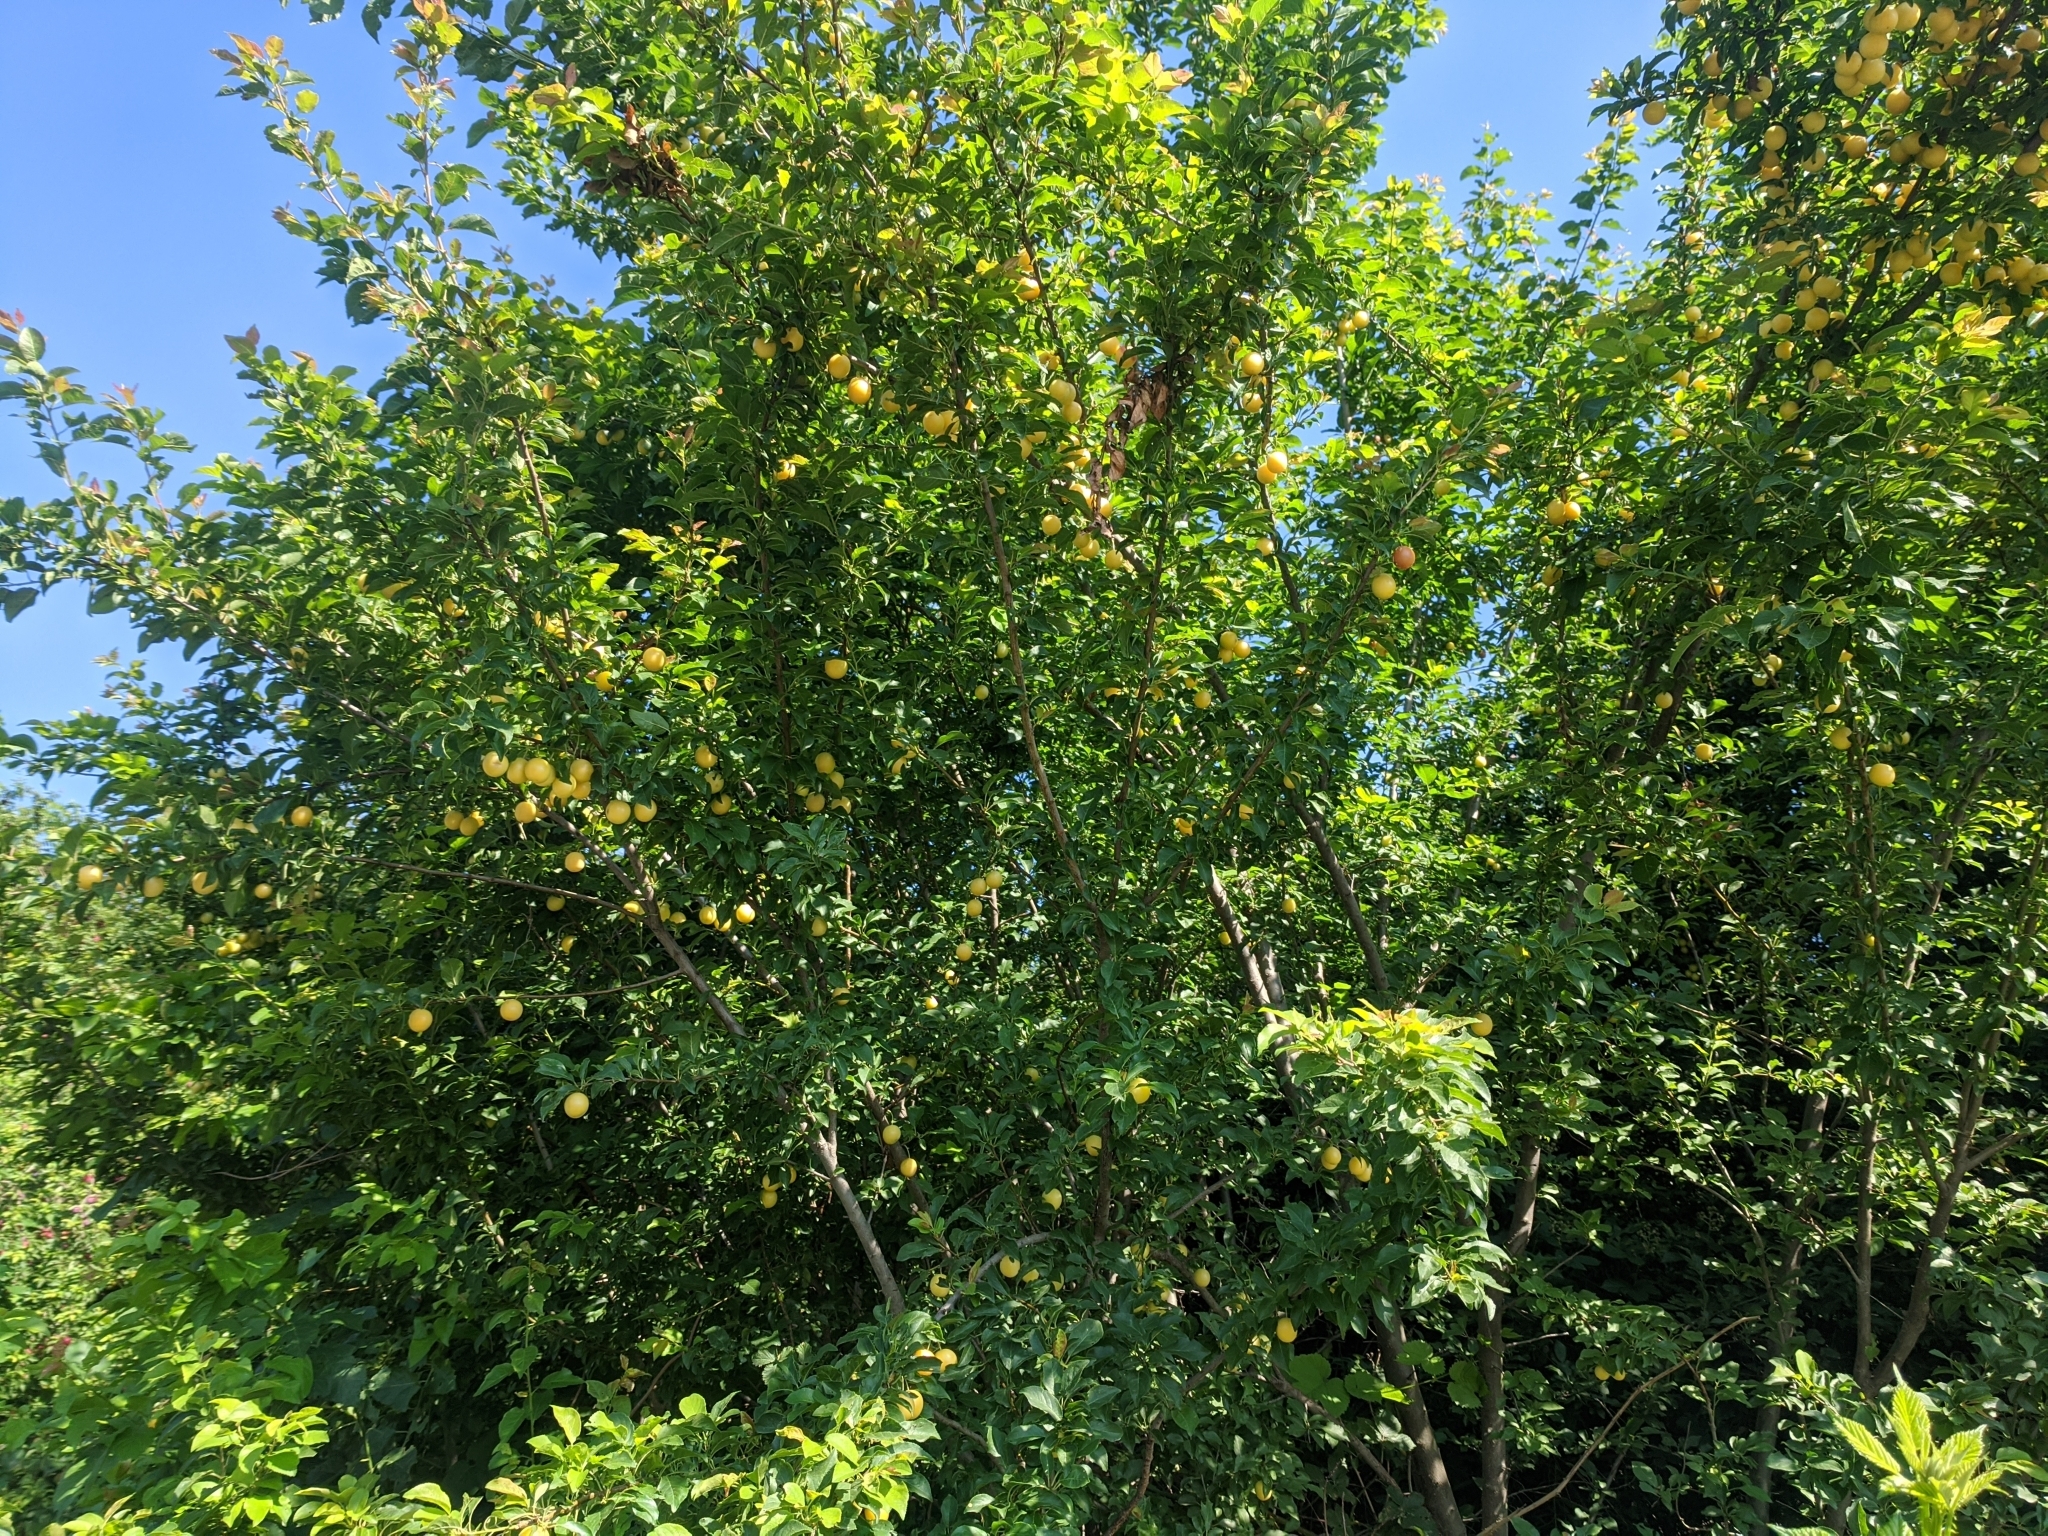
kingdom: Plantae
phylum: Tracheophyta
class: Magnoliopsida
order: Rosales
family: Rosaceae
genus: Prunus
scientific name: Prunus cerasifera
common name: Cherry plum
